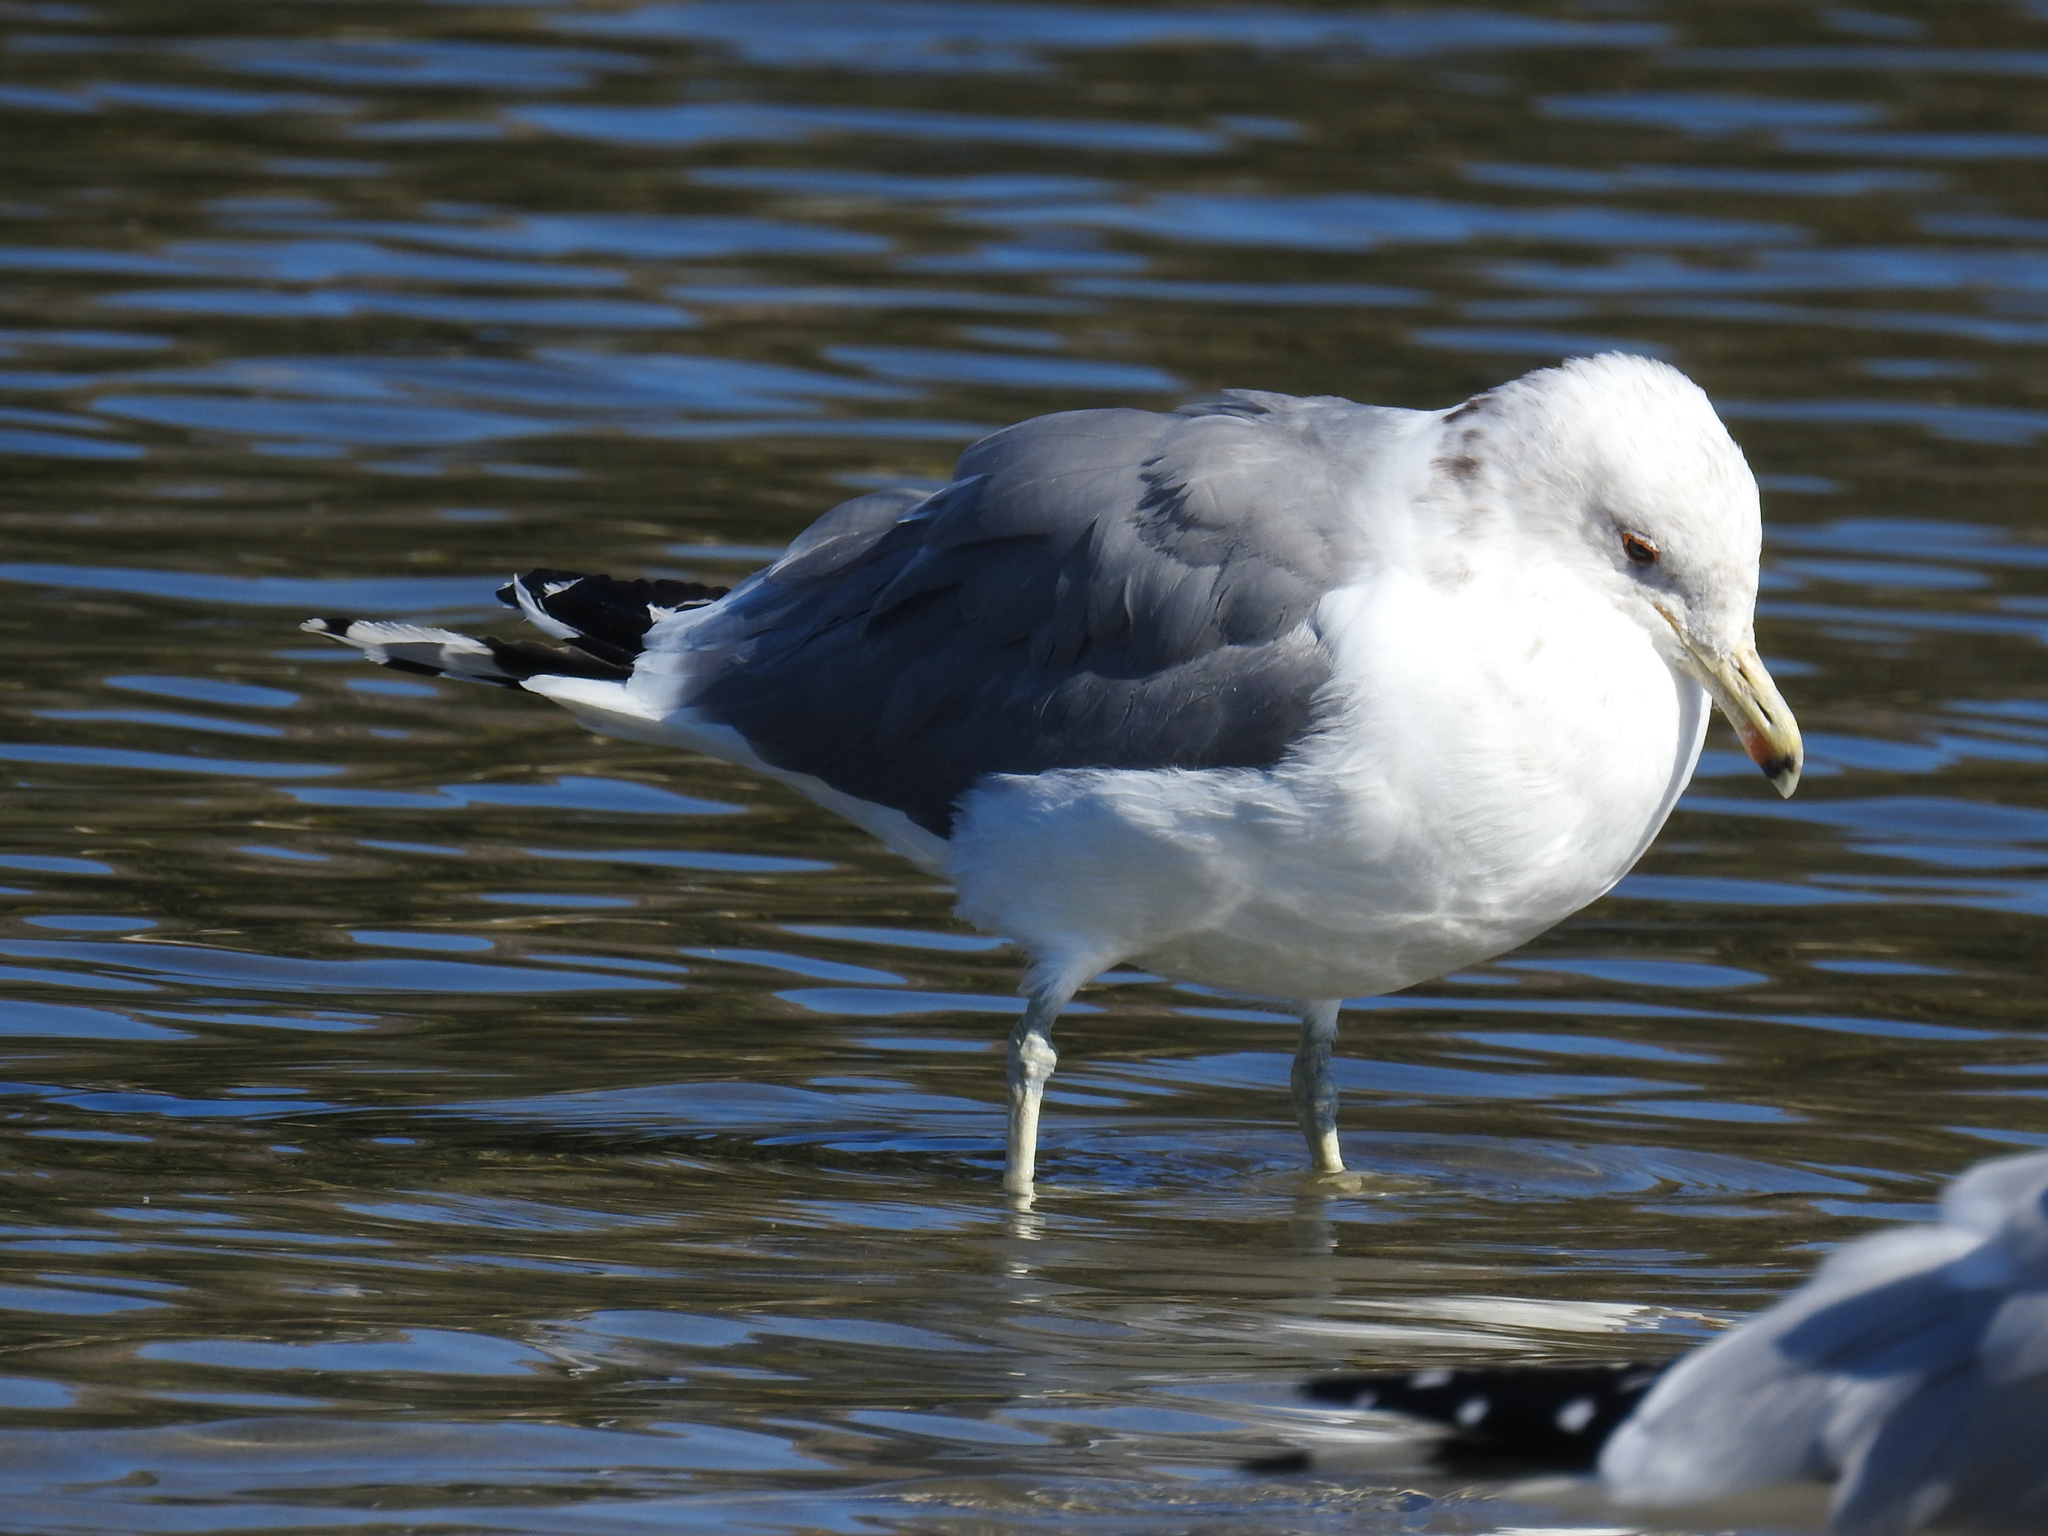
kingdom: Animalia
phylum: Chordata
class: Aves
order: Charadriiformes
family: Laridae
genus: Larus
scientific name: Larus californicus
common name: California gull
